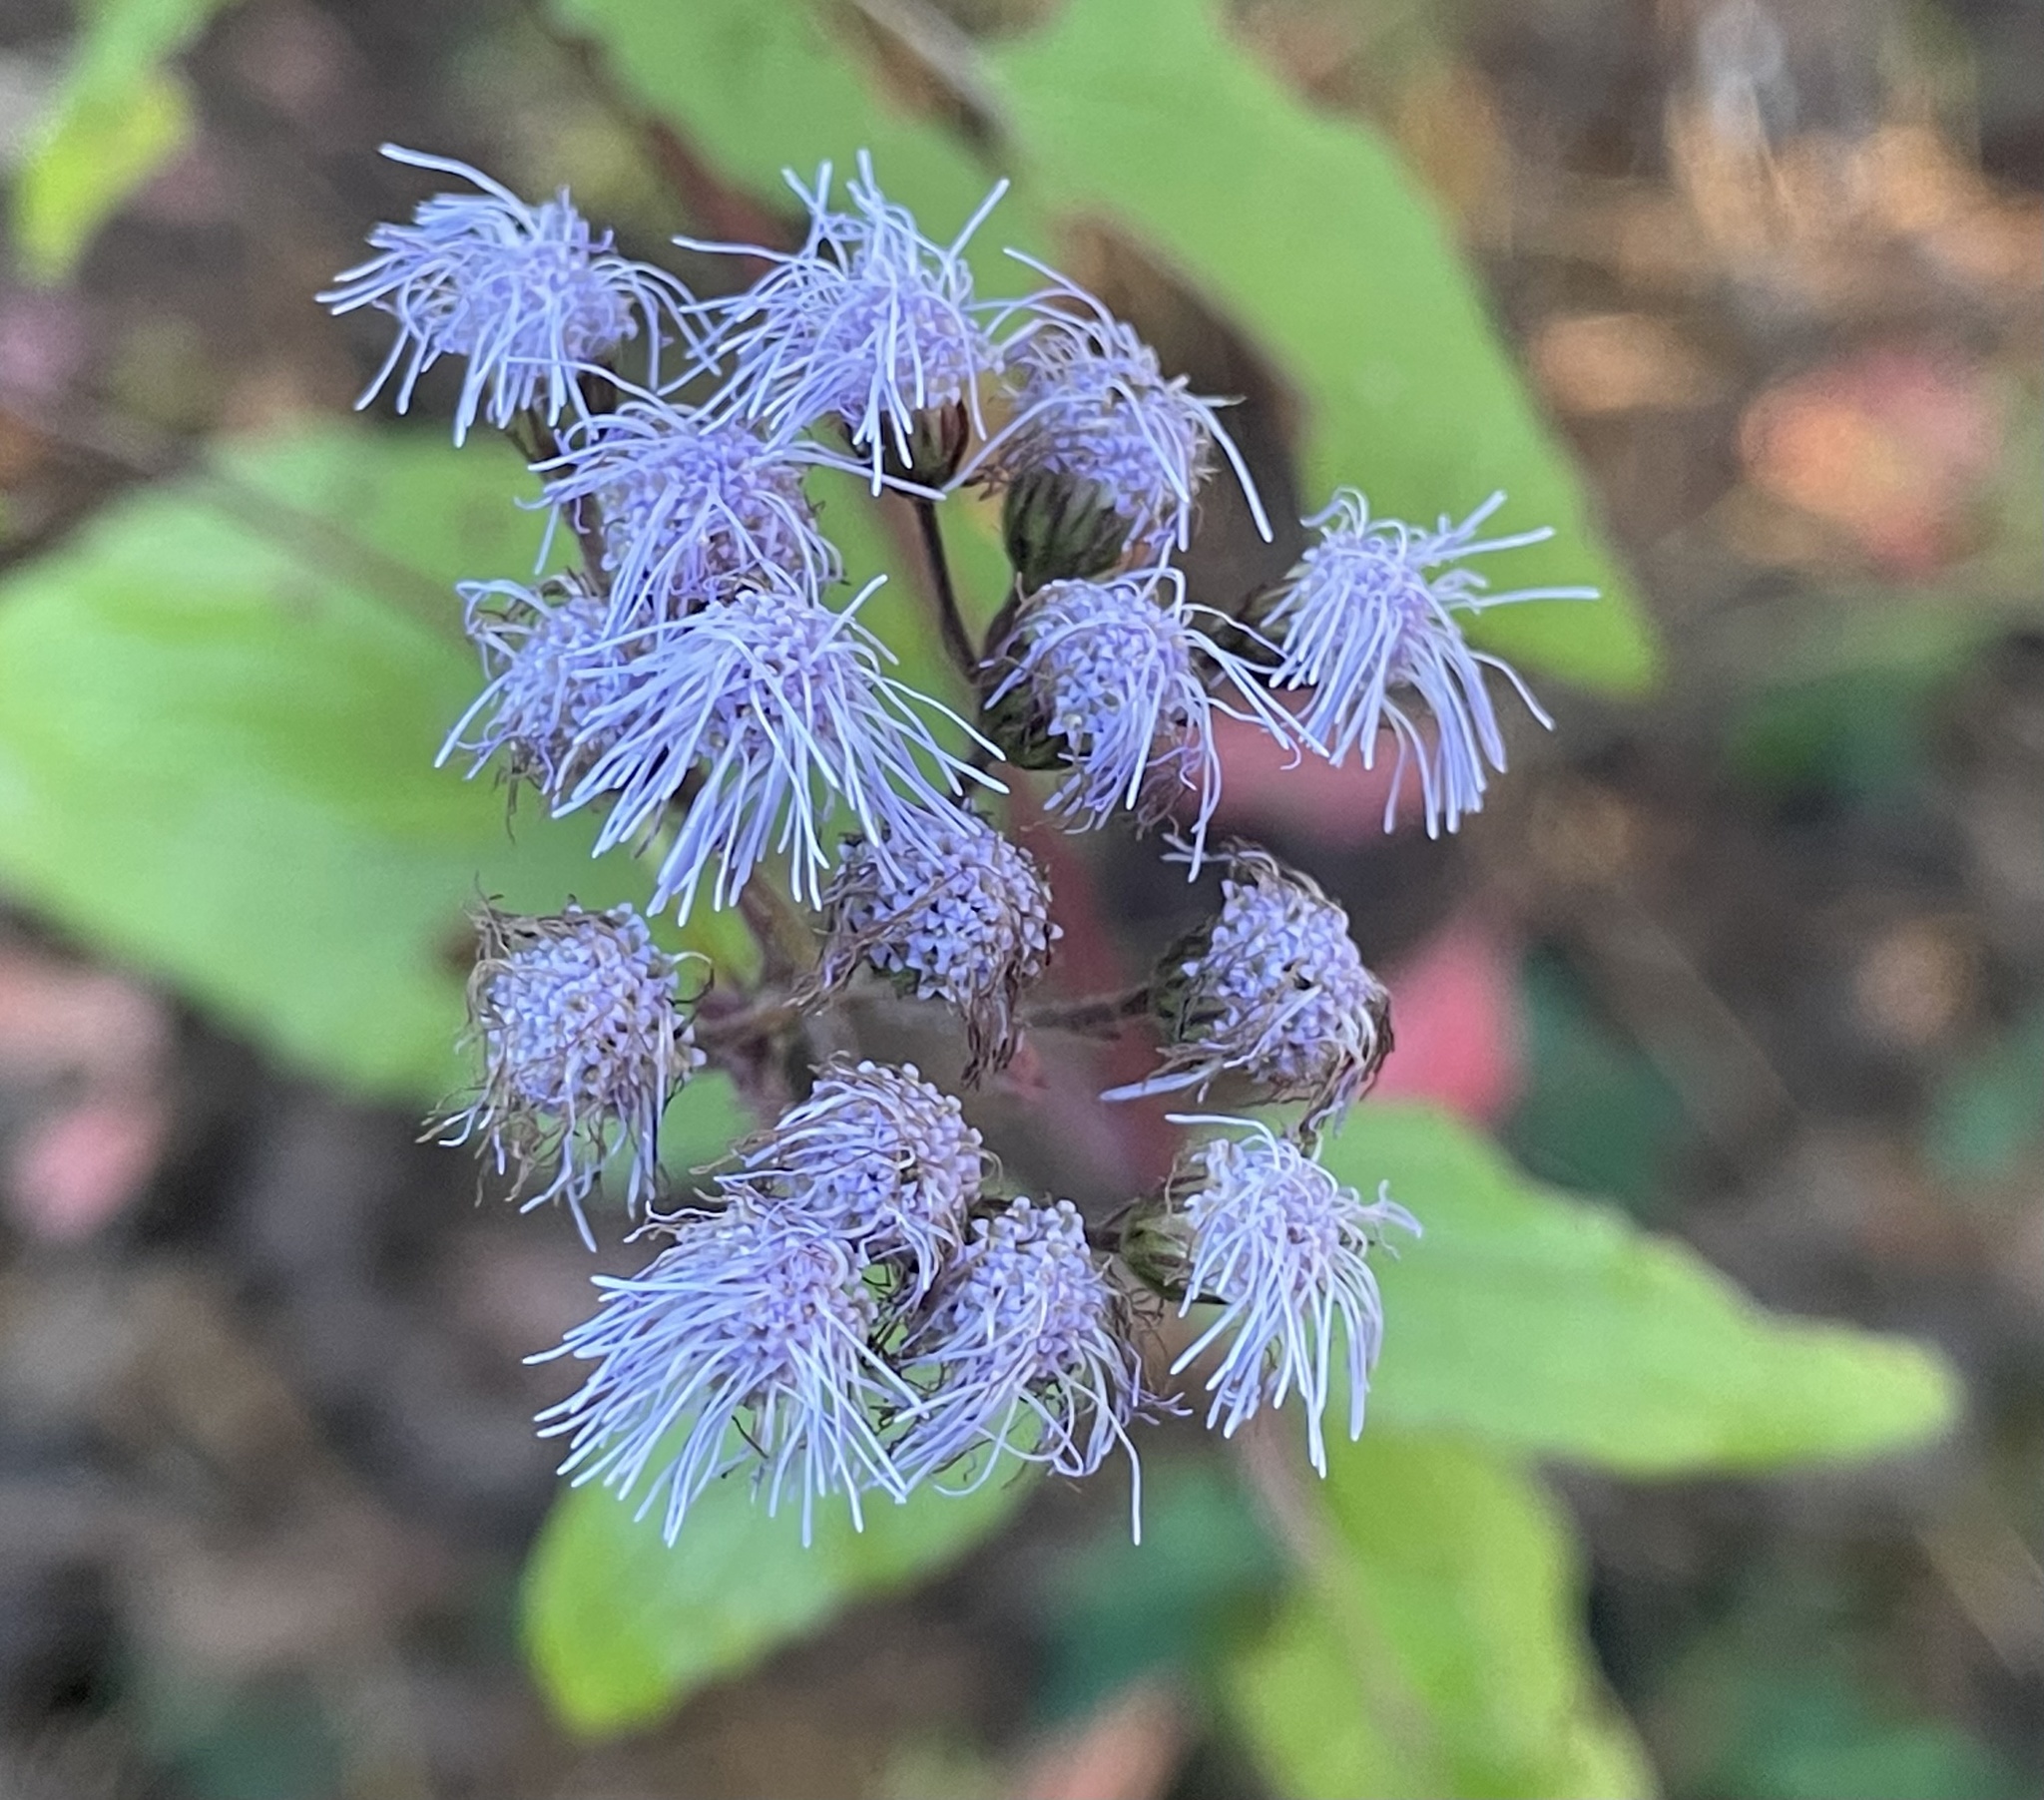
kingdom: Plantae
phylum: Tracheophyta
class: Magnoliopsida
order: Asterales
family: Asteraceae
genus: Conoclinium
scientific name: Conoclinium coelestinum
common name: Blue mistflower
